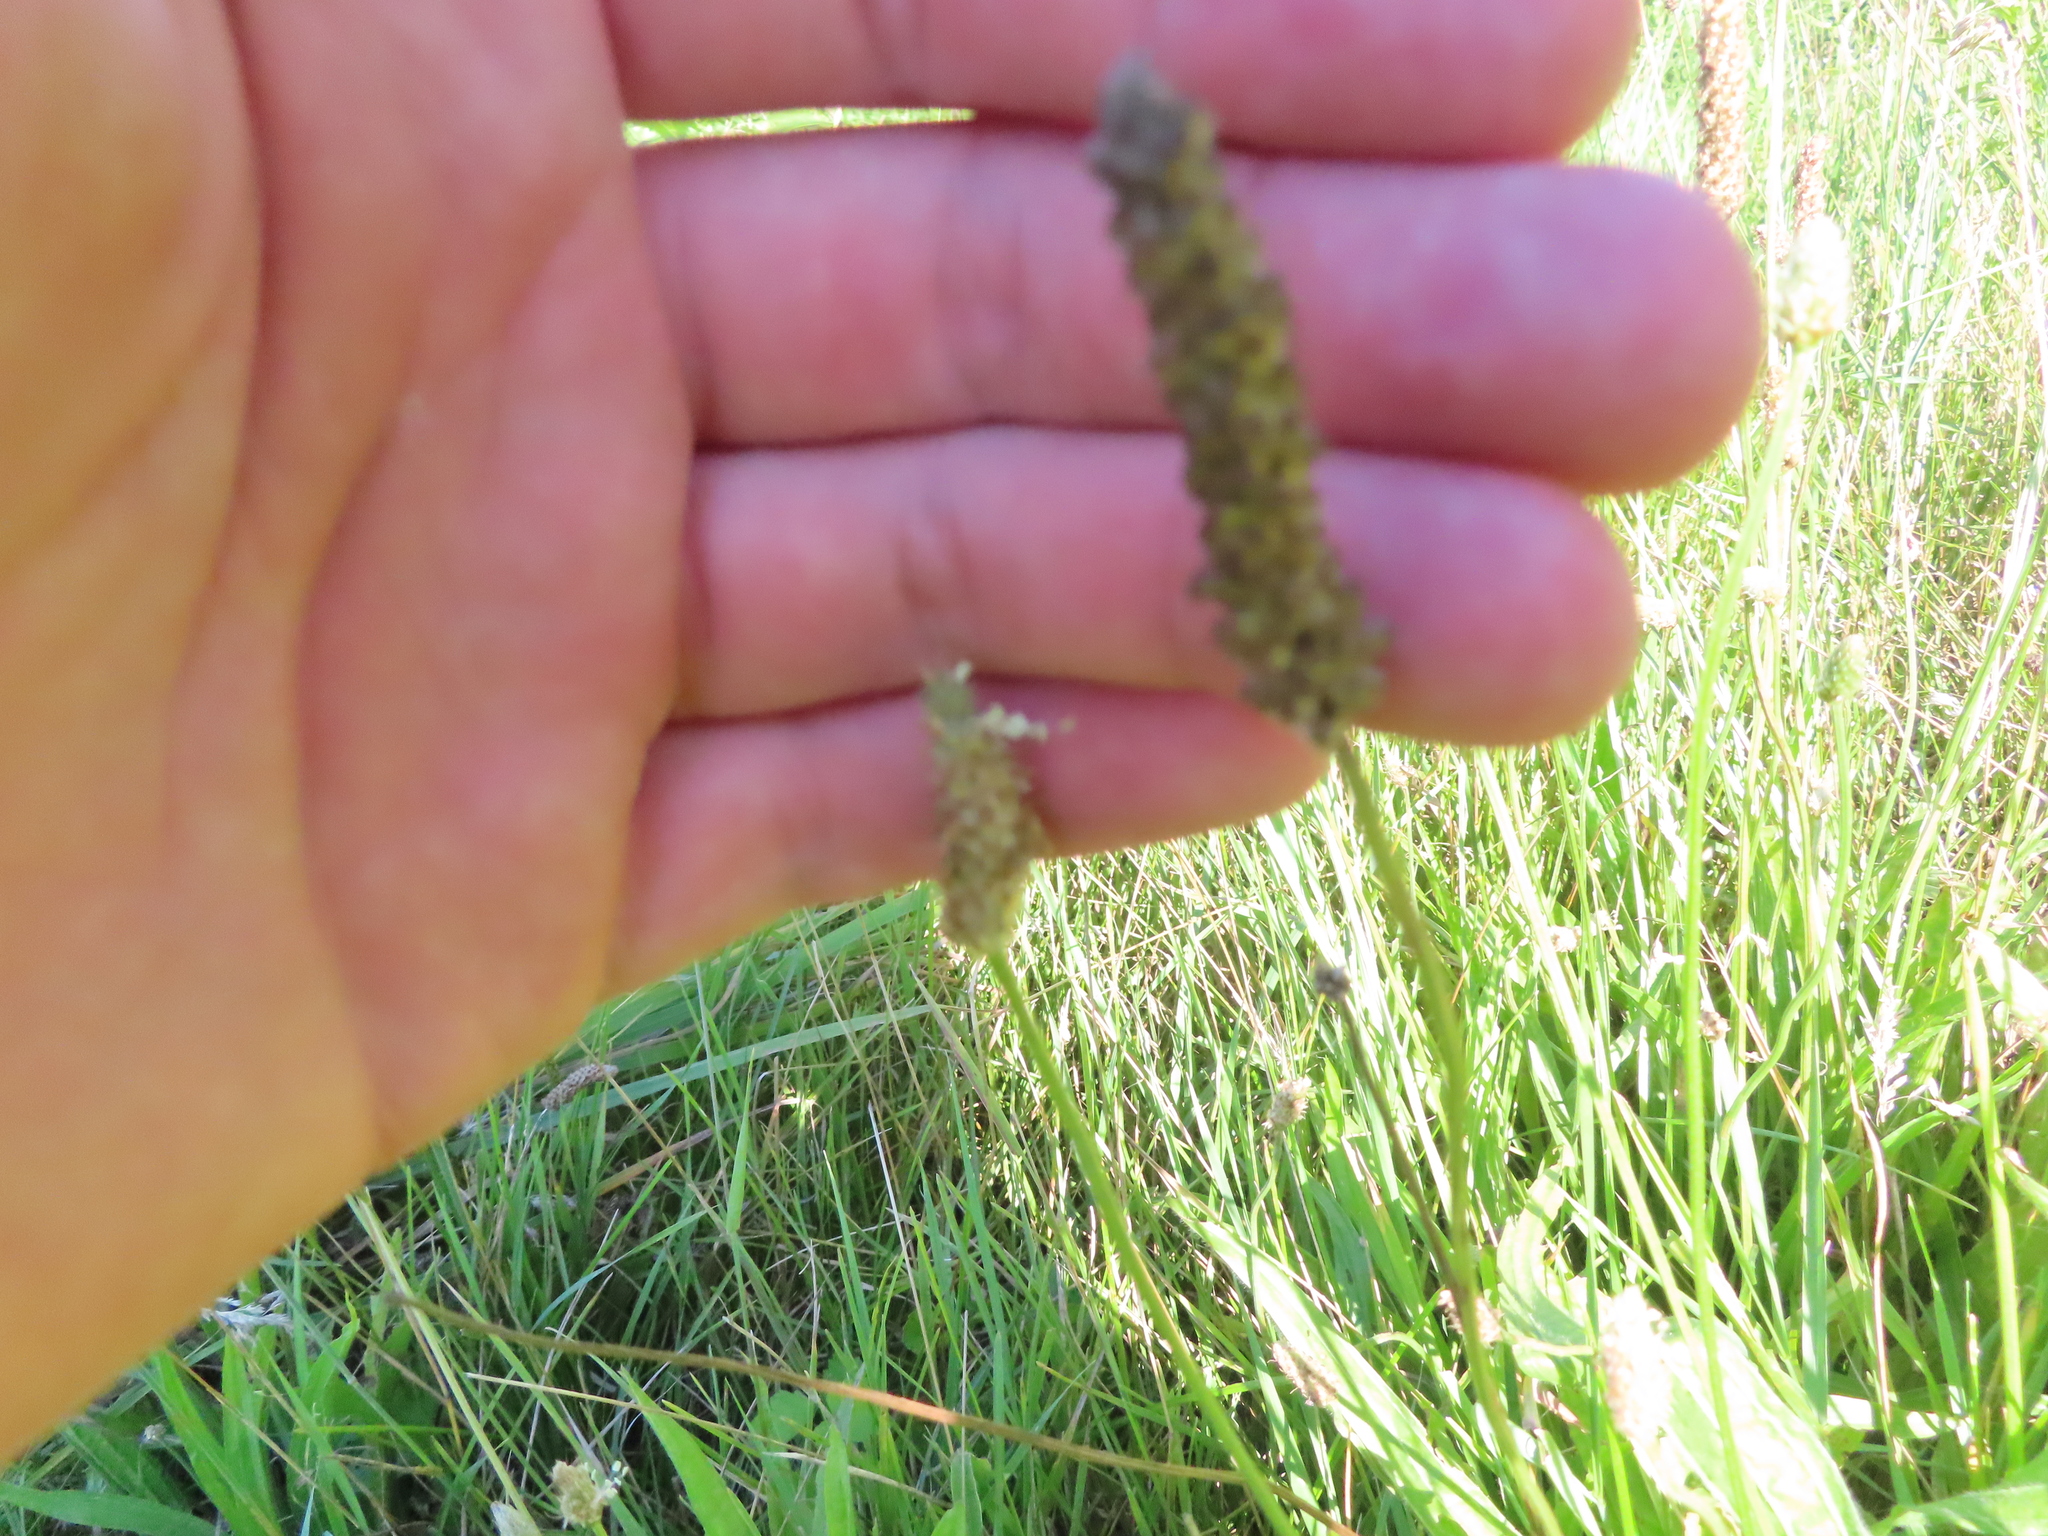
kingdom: Plantae
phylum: Tracheophyta
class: Magnoliopsida
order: Lamiales
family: Plantaginaceae
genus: Plantago
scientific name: Plantago lanceolata
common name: Ribwort plantain
